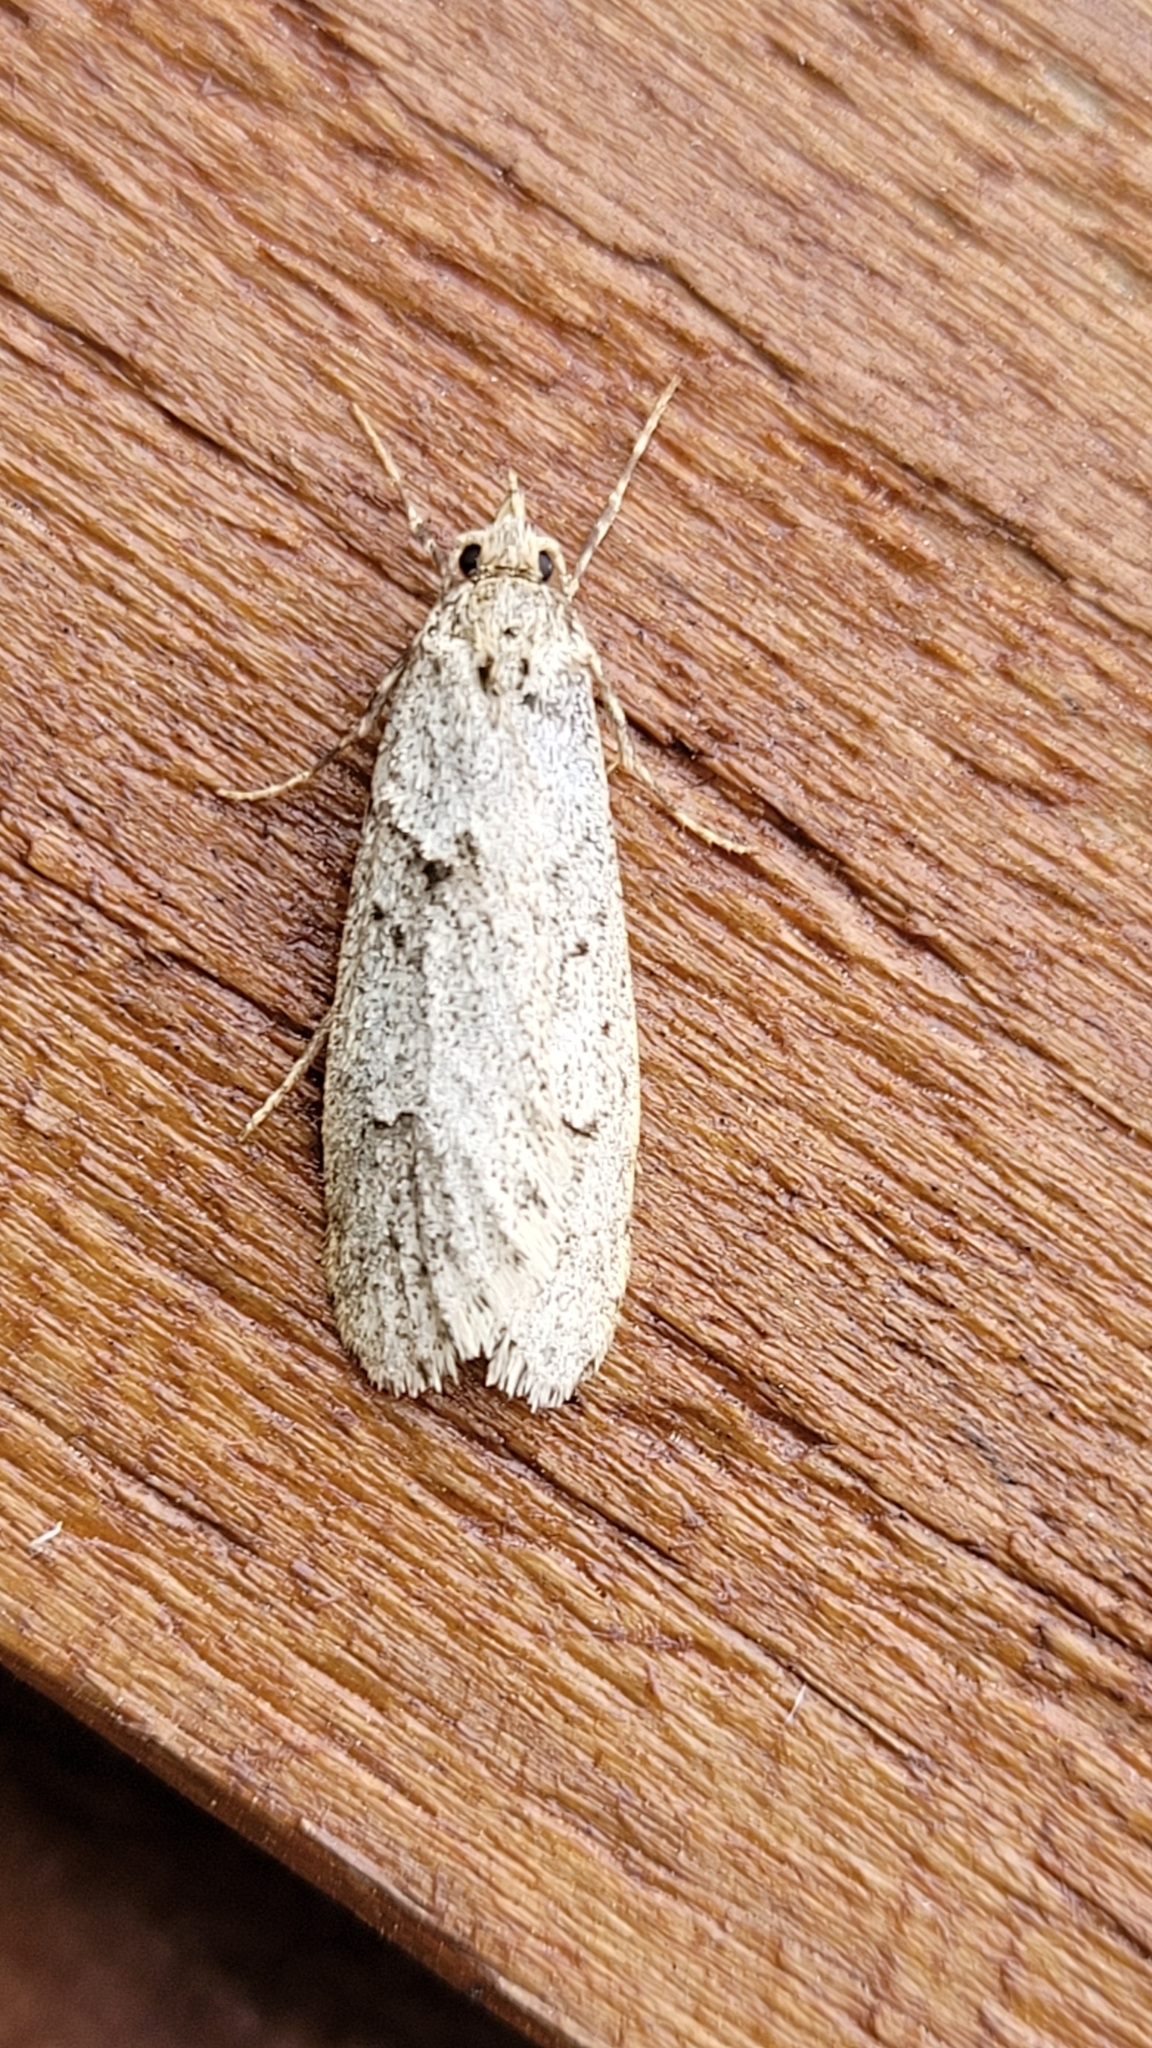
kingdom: Animalia
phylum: Arthropoda
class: Insecta
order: Lepidoptera
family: Lypusidae
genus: Diurnea
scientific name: Diurnea fagella
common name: March tubic
